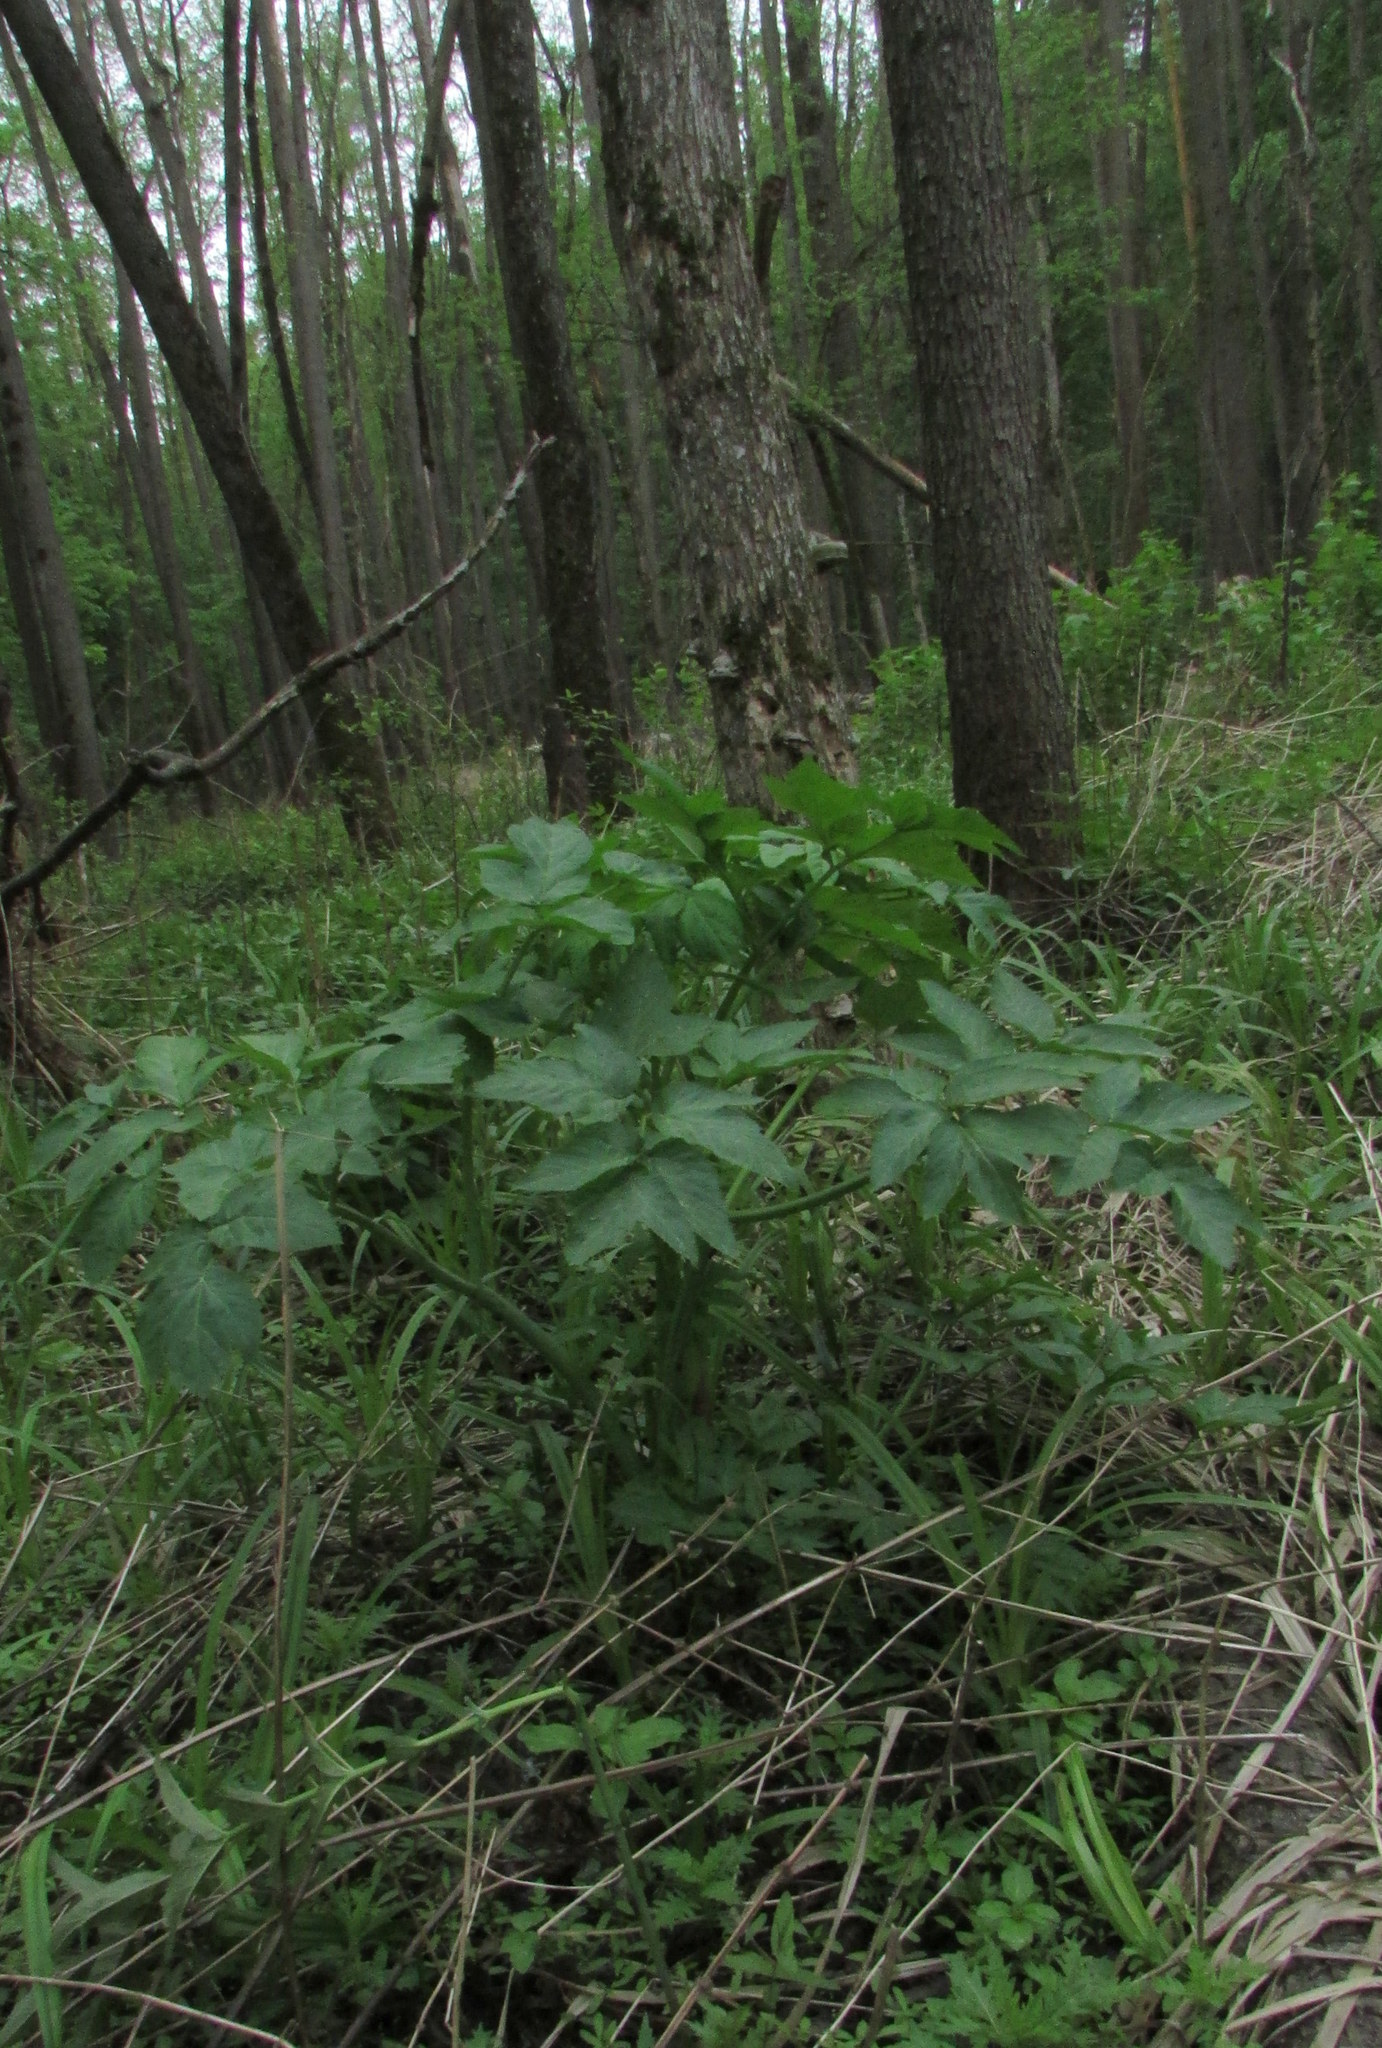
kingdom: Plantae
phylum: Tracheophyta
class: Magnoliopsida
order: Apiales
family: Apiaceae
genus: Angelica
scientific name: Angelica archangelica
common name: Garden angelica
